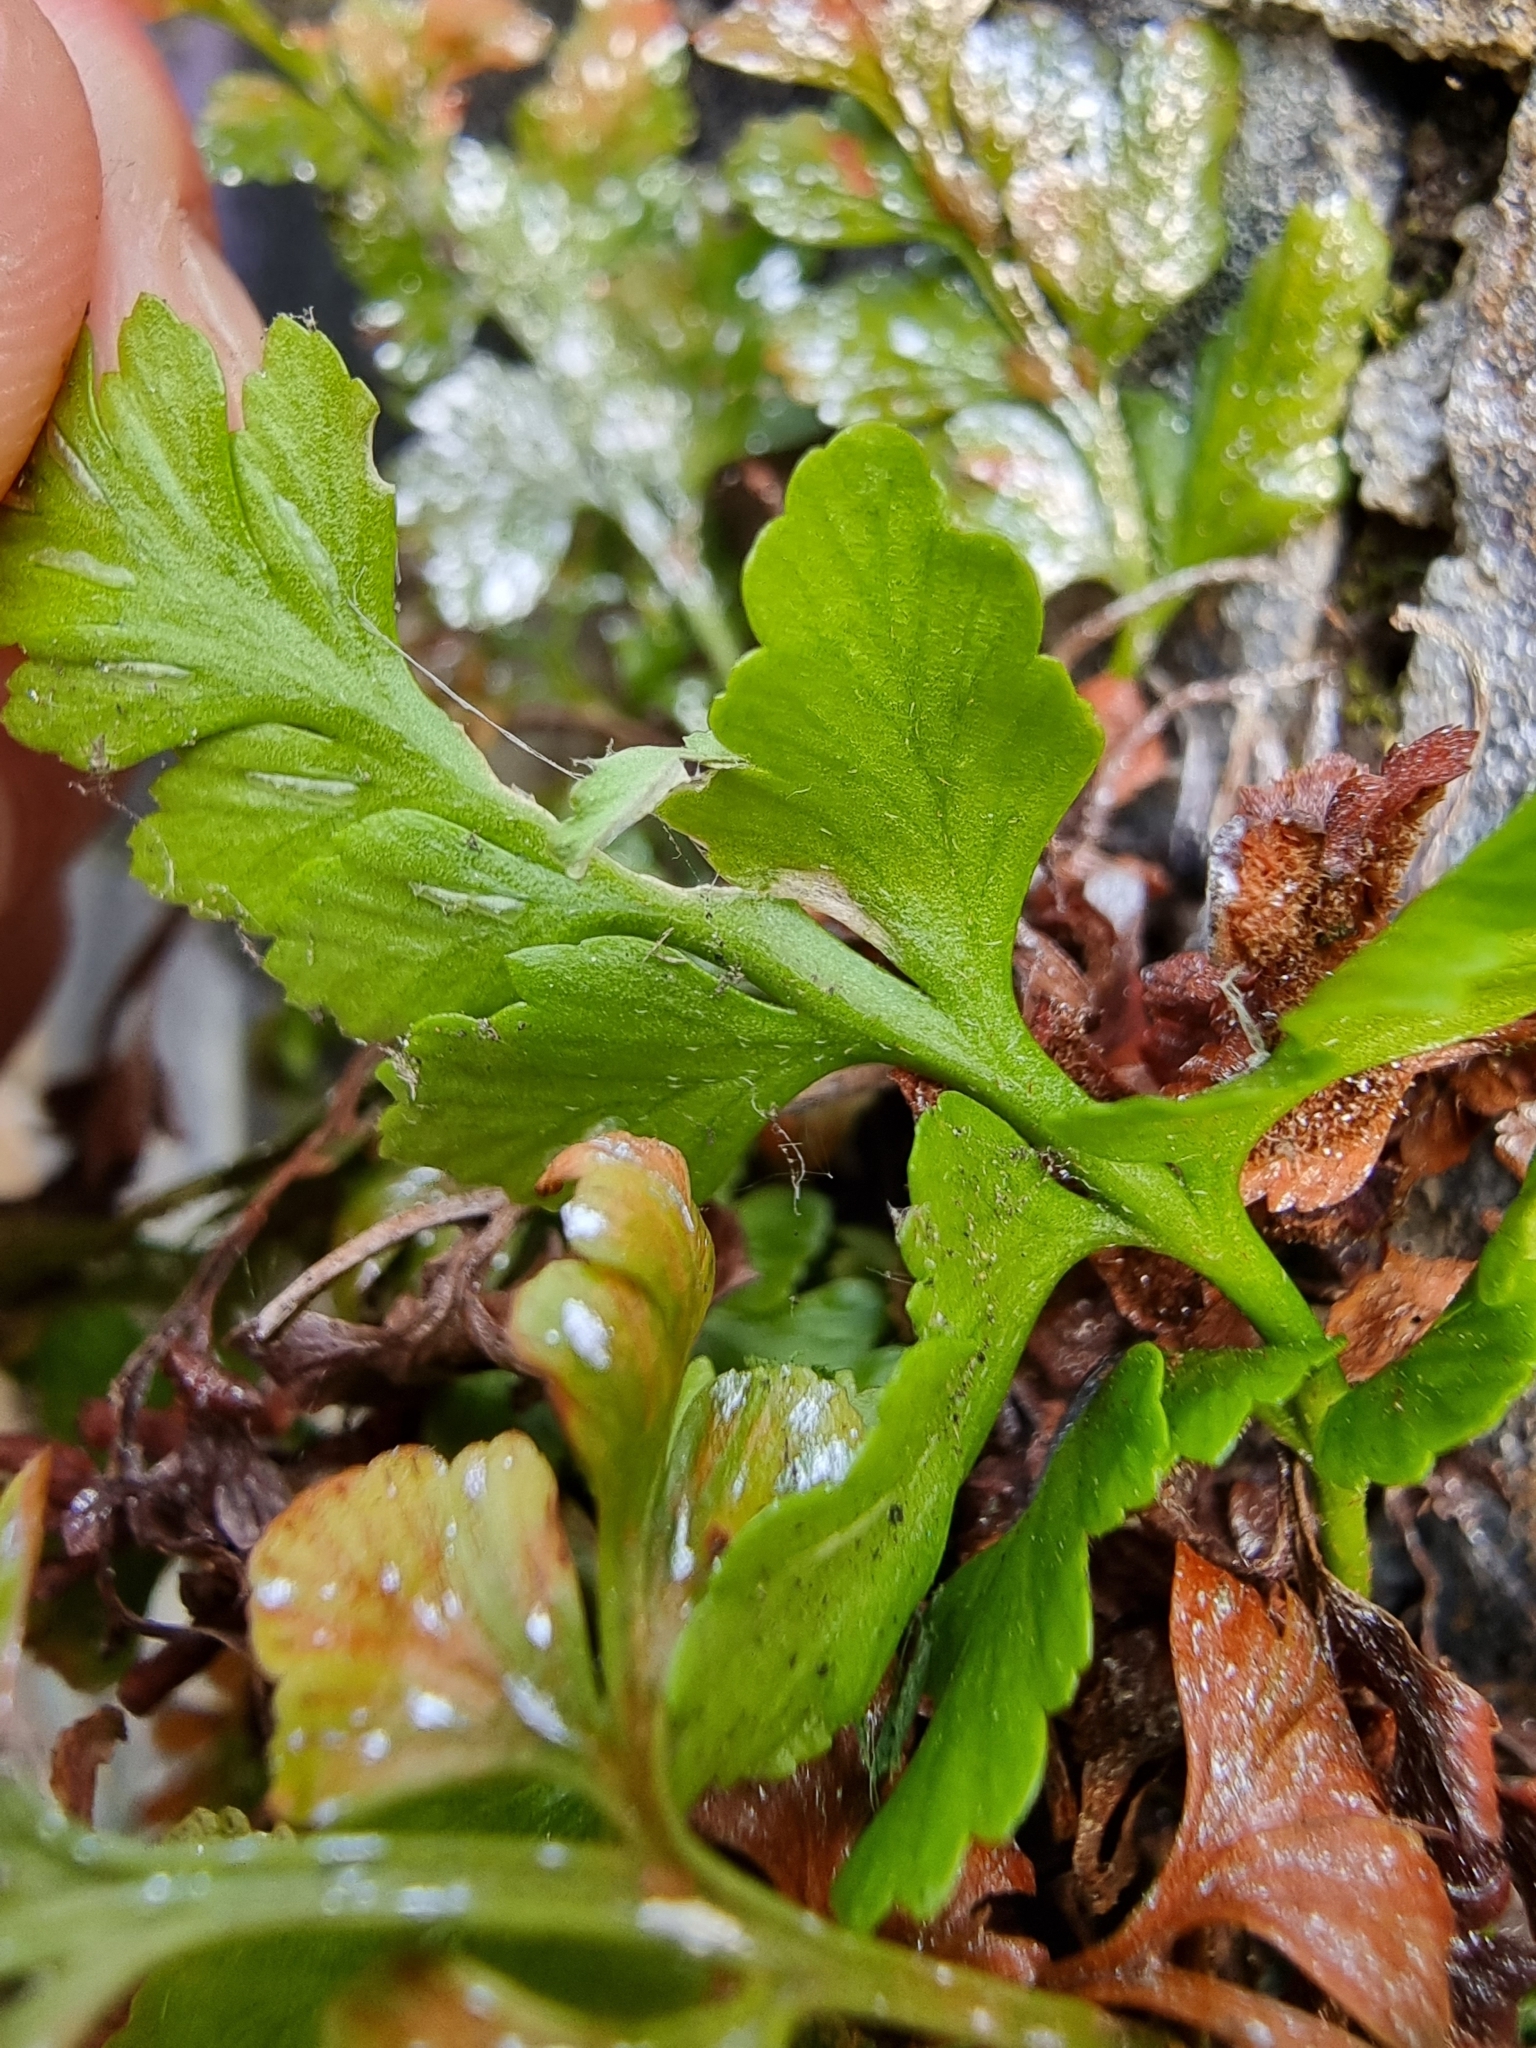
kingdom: Plantae
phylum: Tracheophyta
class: Polypodiopsida
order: Polypodiales
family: Aspleniaceae
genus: Asplenium
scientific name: Asplenium adiantum-nigrum
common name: Black spleenwort
